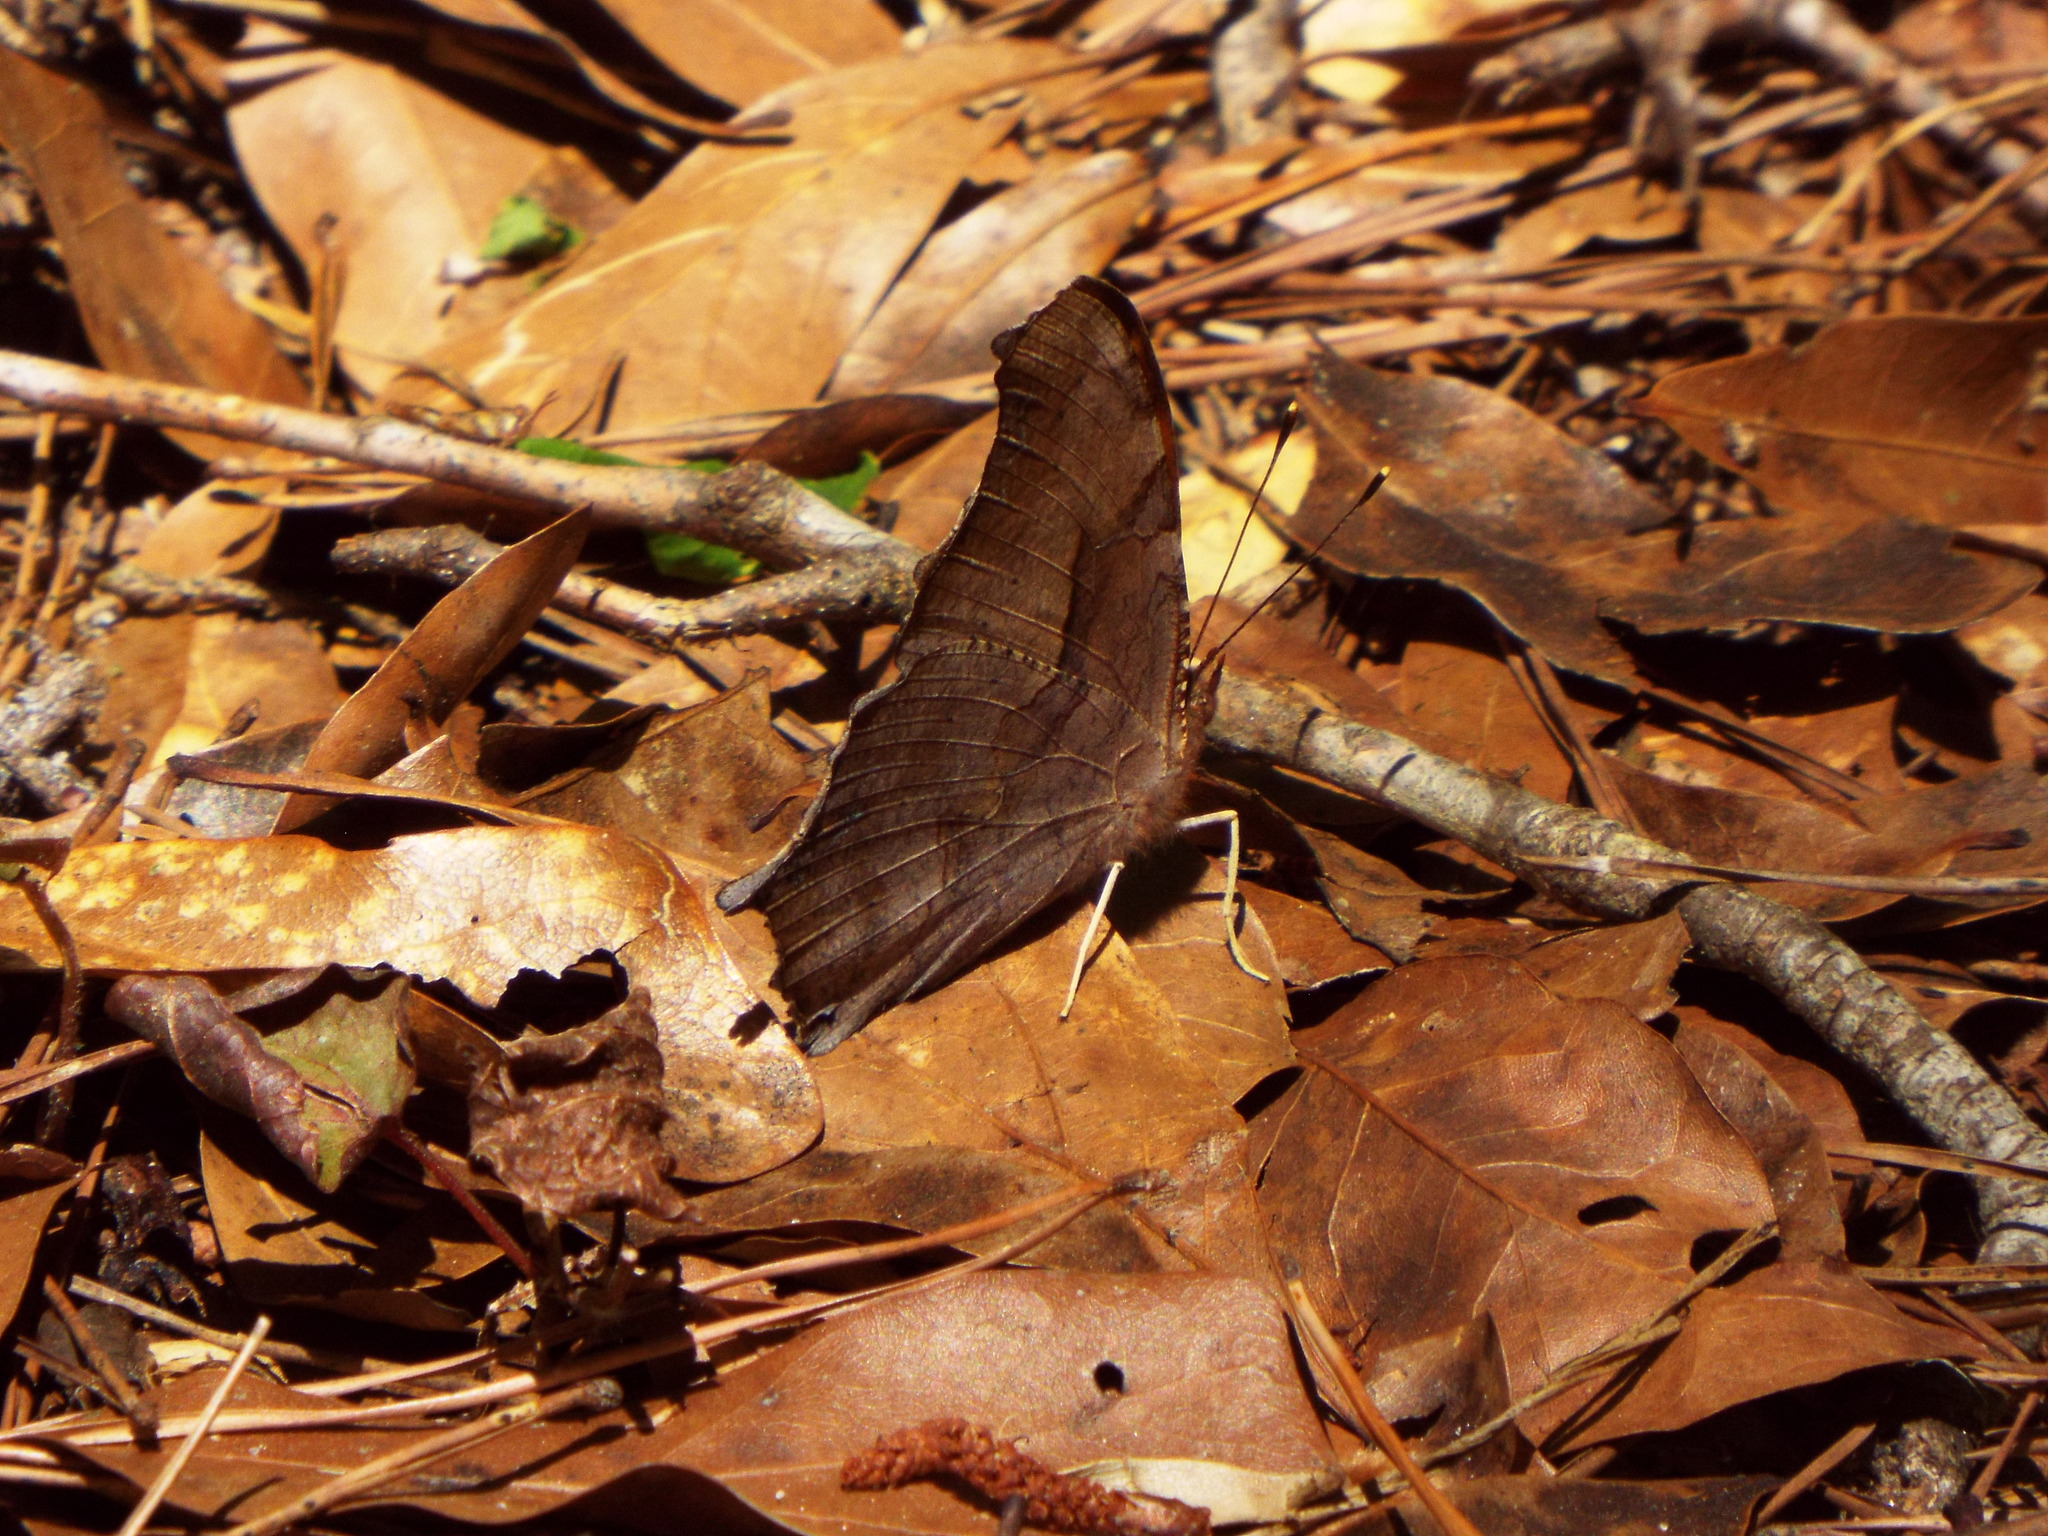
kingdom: Animalia
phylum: Arthropoda
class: Insecta
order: Lepidoptera
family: Nymphalidae
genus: Polygonia
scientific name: Polygonia interrogationis
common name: Question mark
